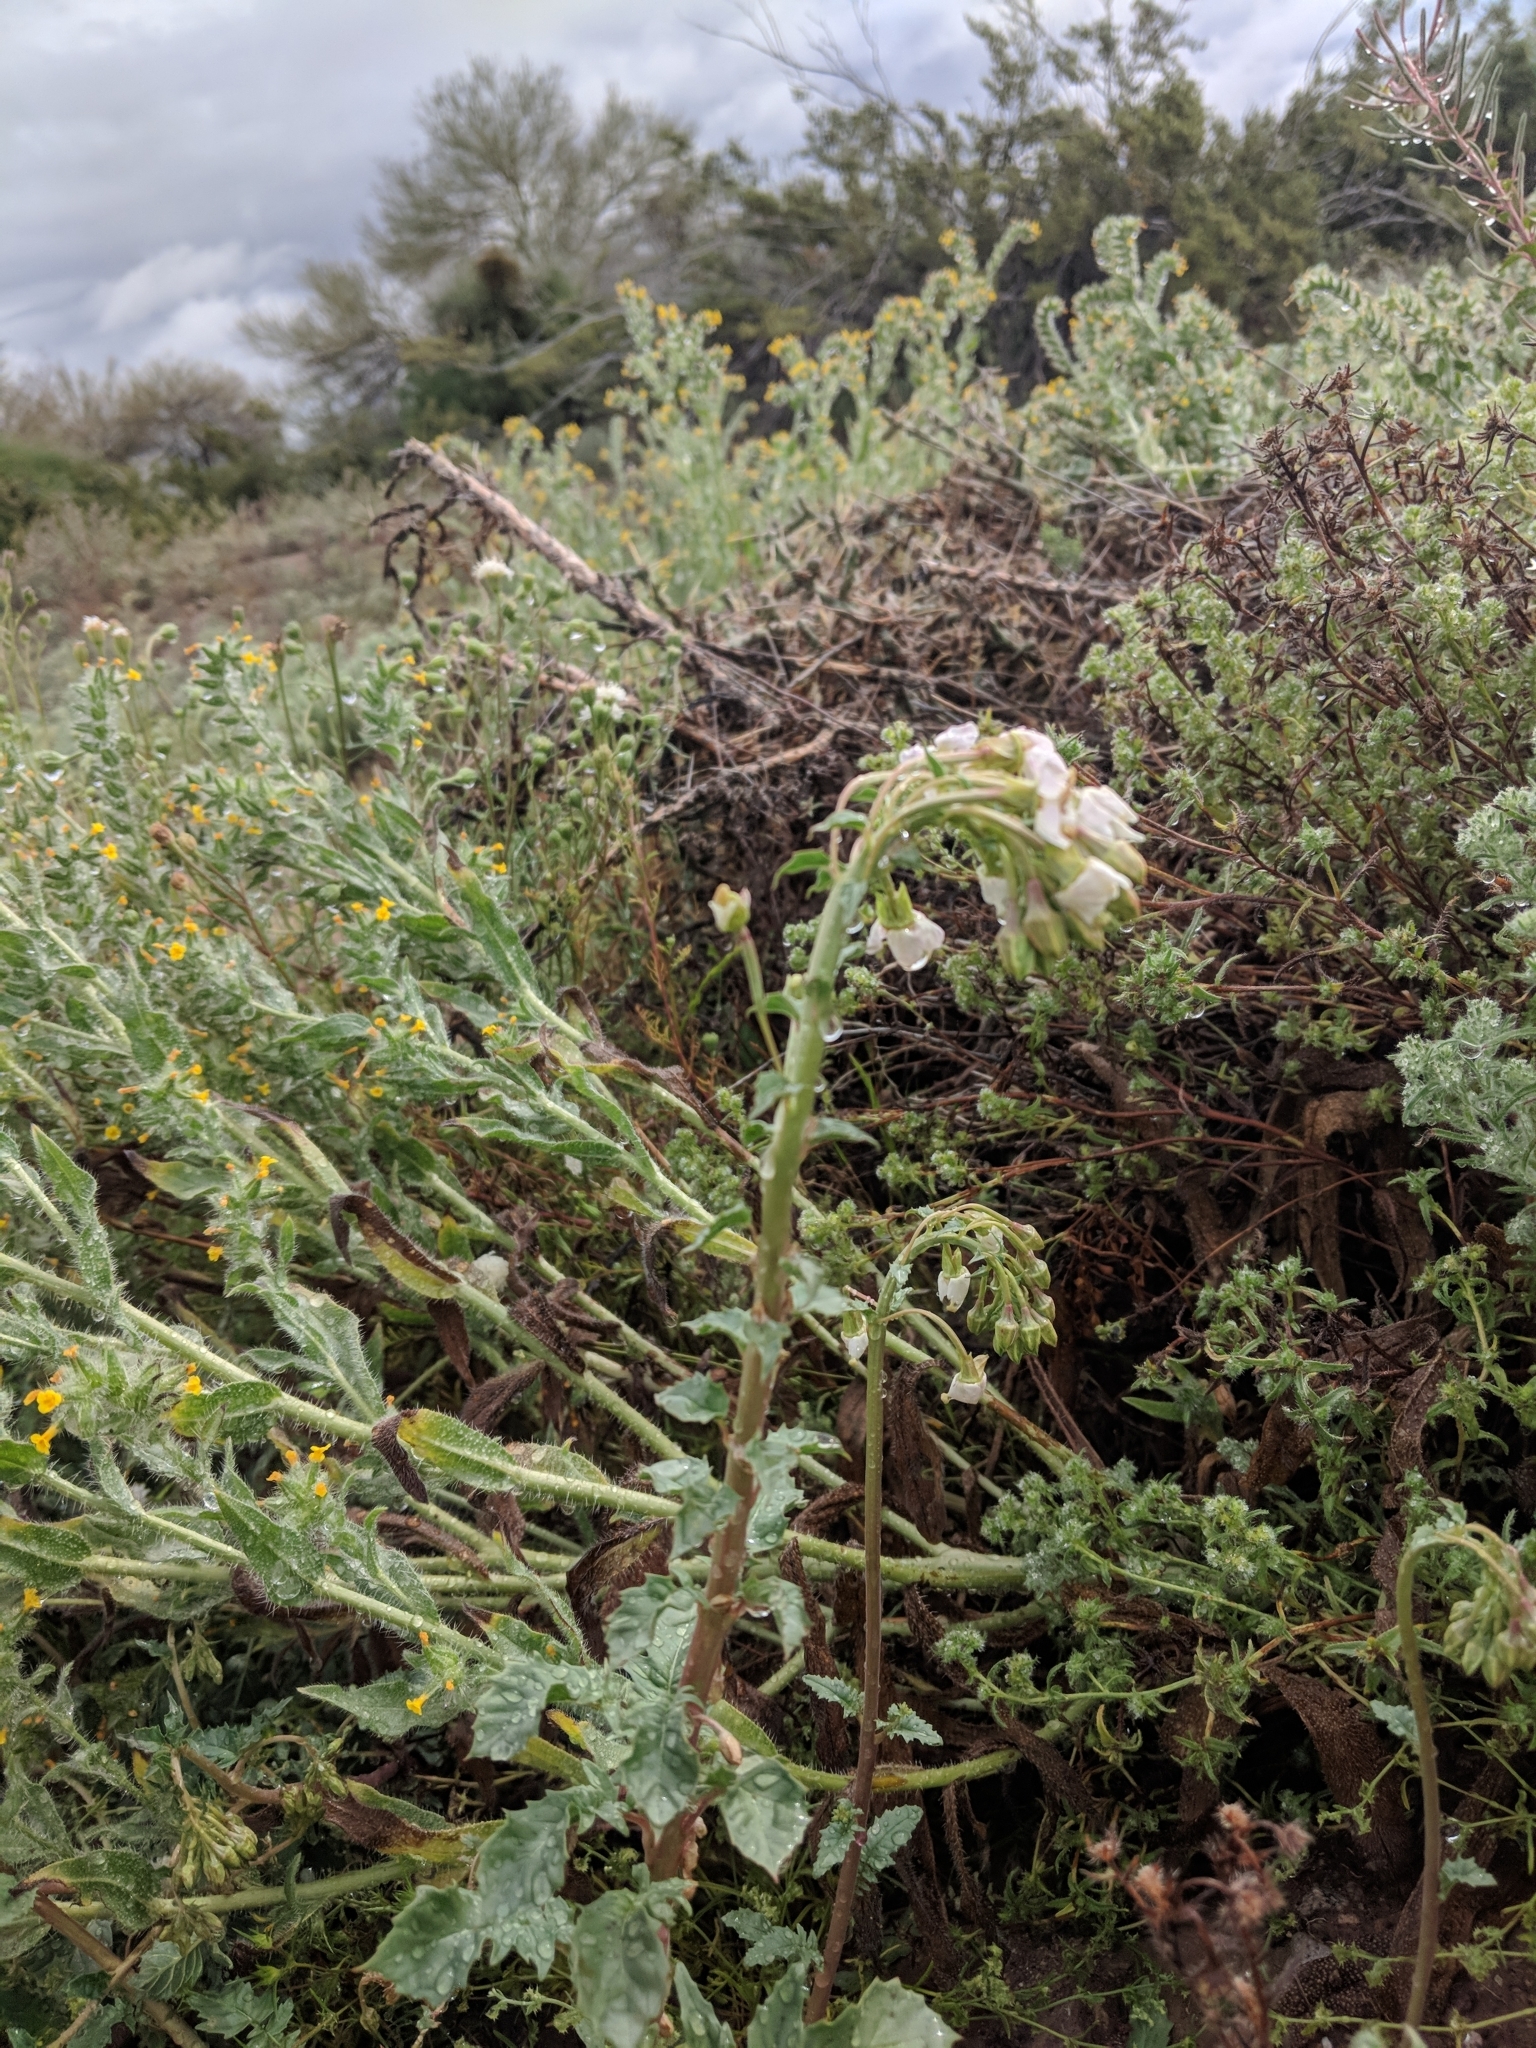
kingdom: Plantae
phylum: Tracheophyta
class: Magnoliopsida
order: Myrtales
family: Onagraceae
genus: Chylismia
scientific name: Chylismia claviformis
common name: Browneyes
